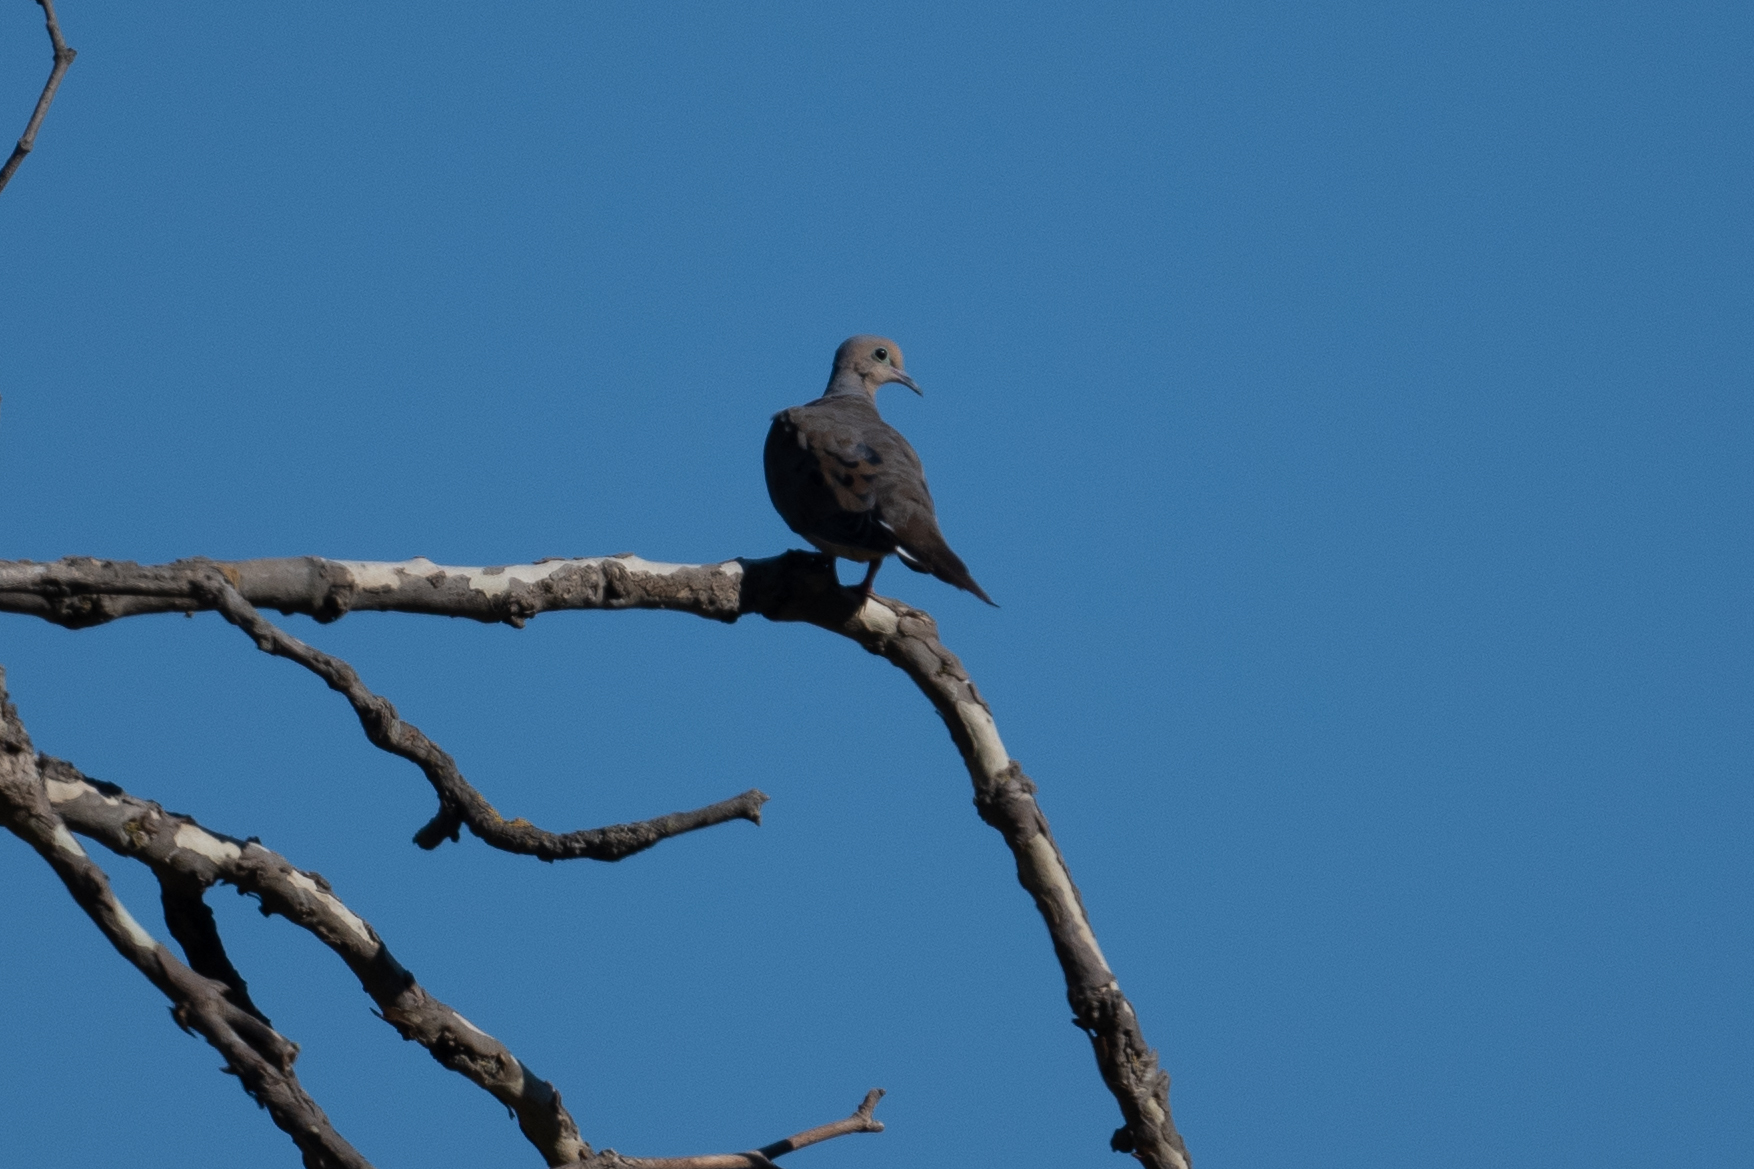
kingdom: Animalia
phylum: Chordata
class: Aves
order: Columbiformes
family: Columbidae
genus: Zenaida
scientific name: Zenaida macroura
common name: Mourning dove
